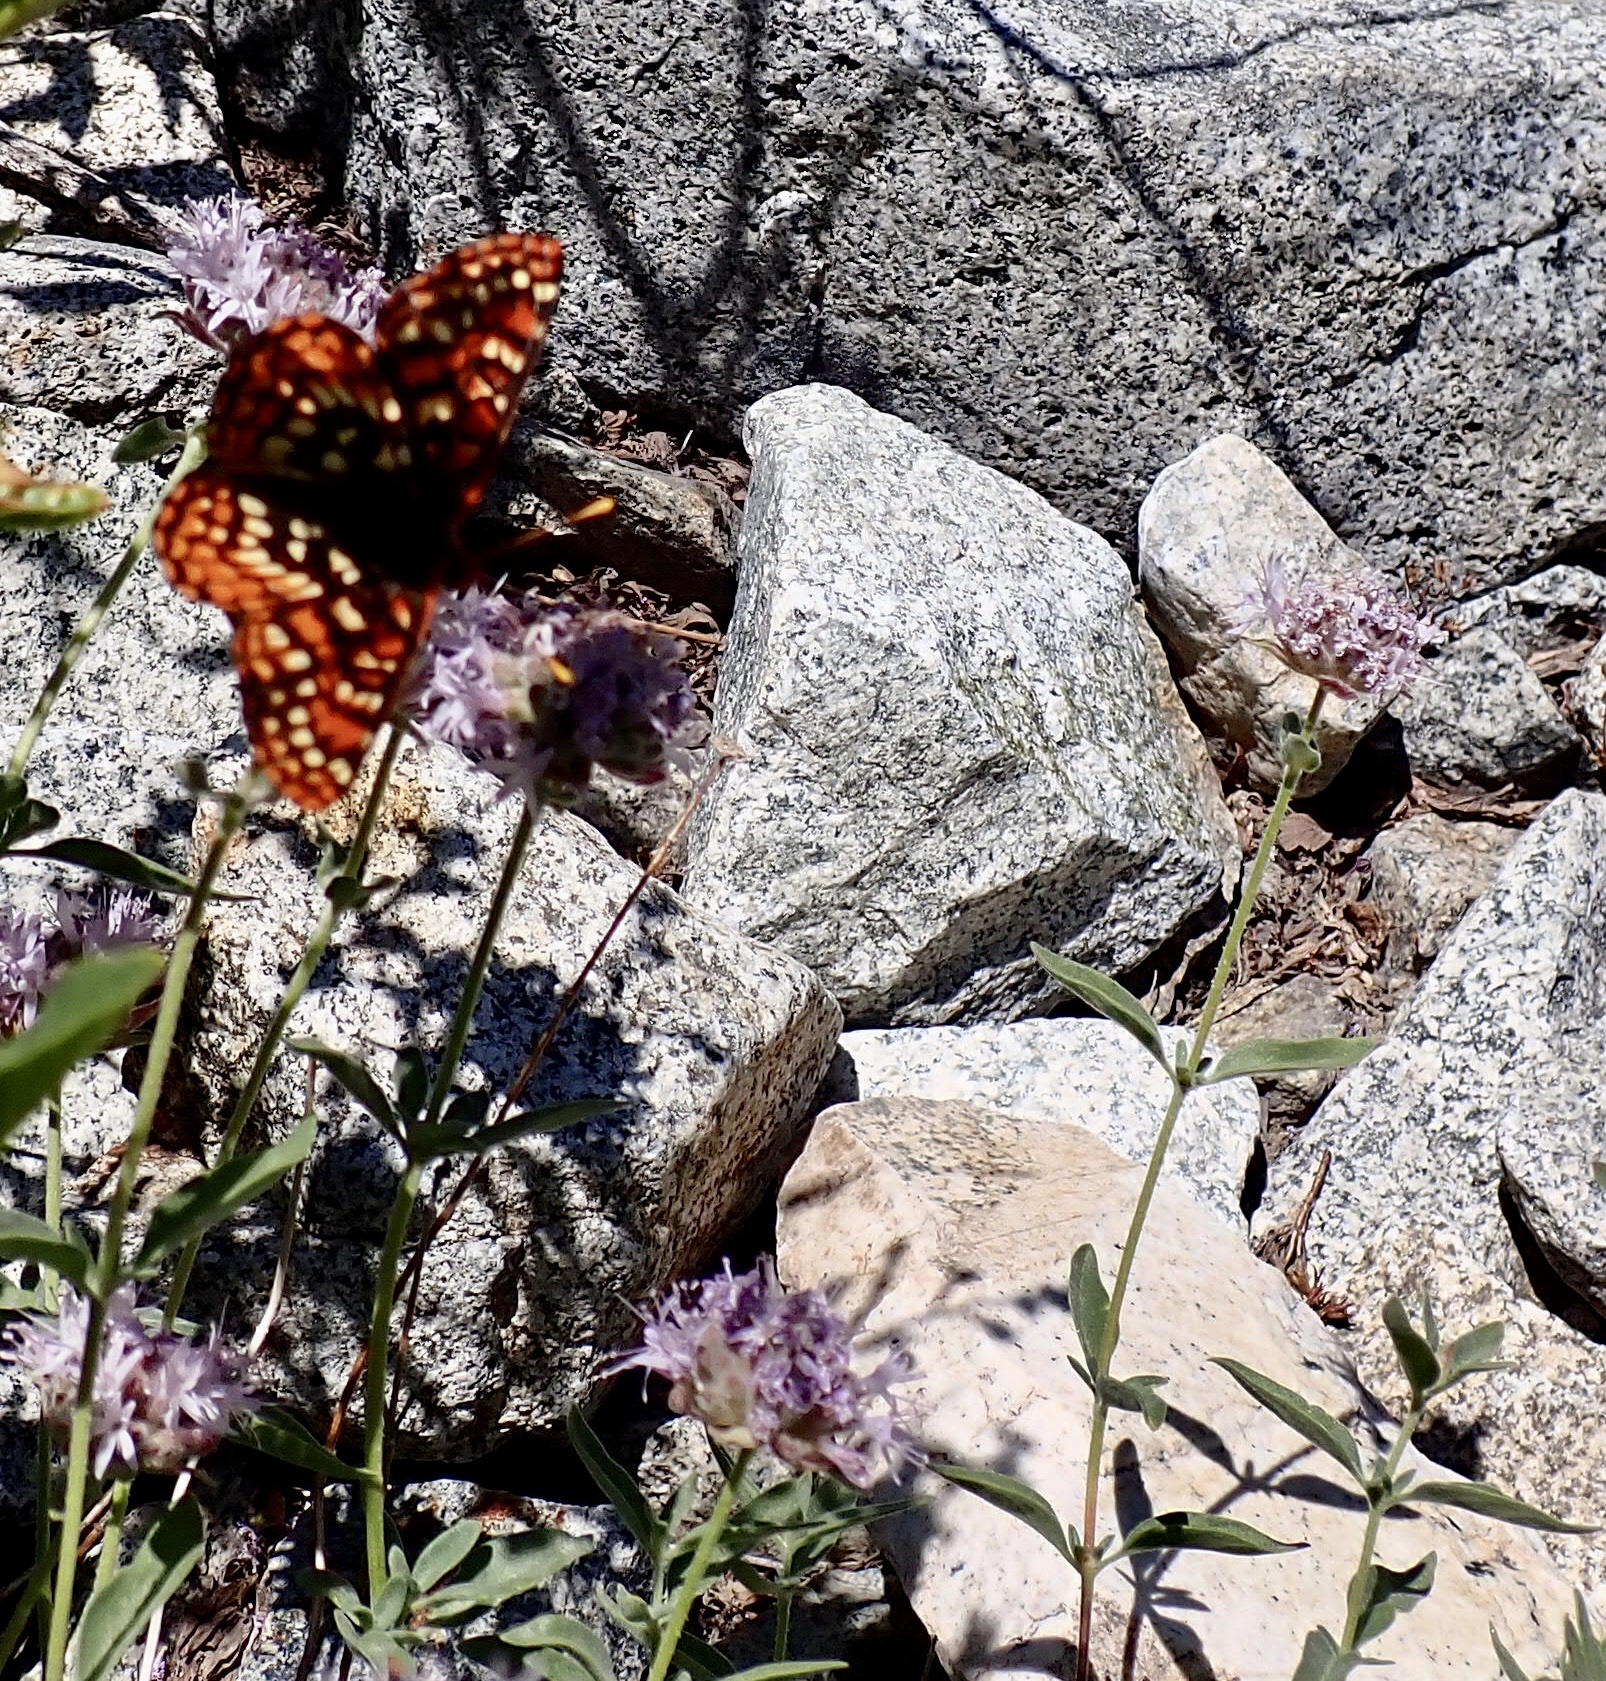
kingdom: Animalia
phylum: Arthropoda
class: Insecta
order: Lepidoptera
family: Nymphalidae
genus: Occidryas
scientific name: Occidryas chalcedona
